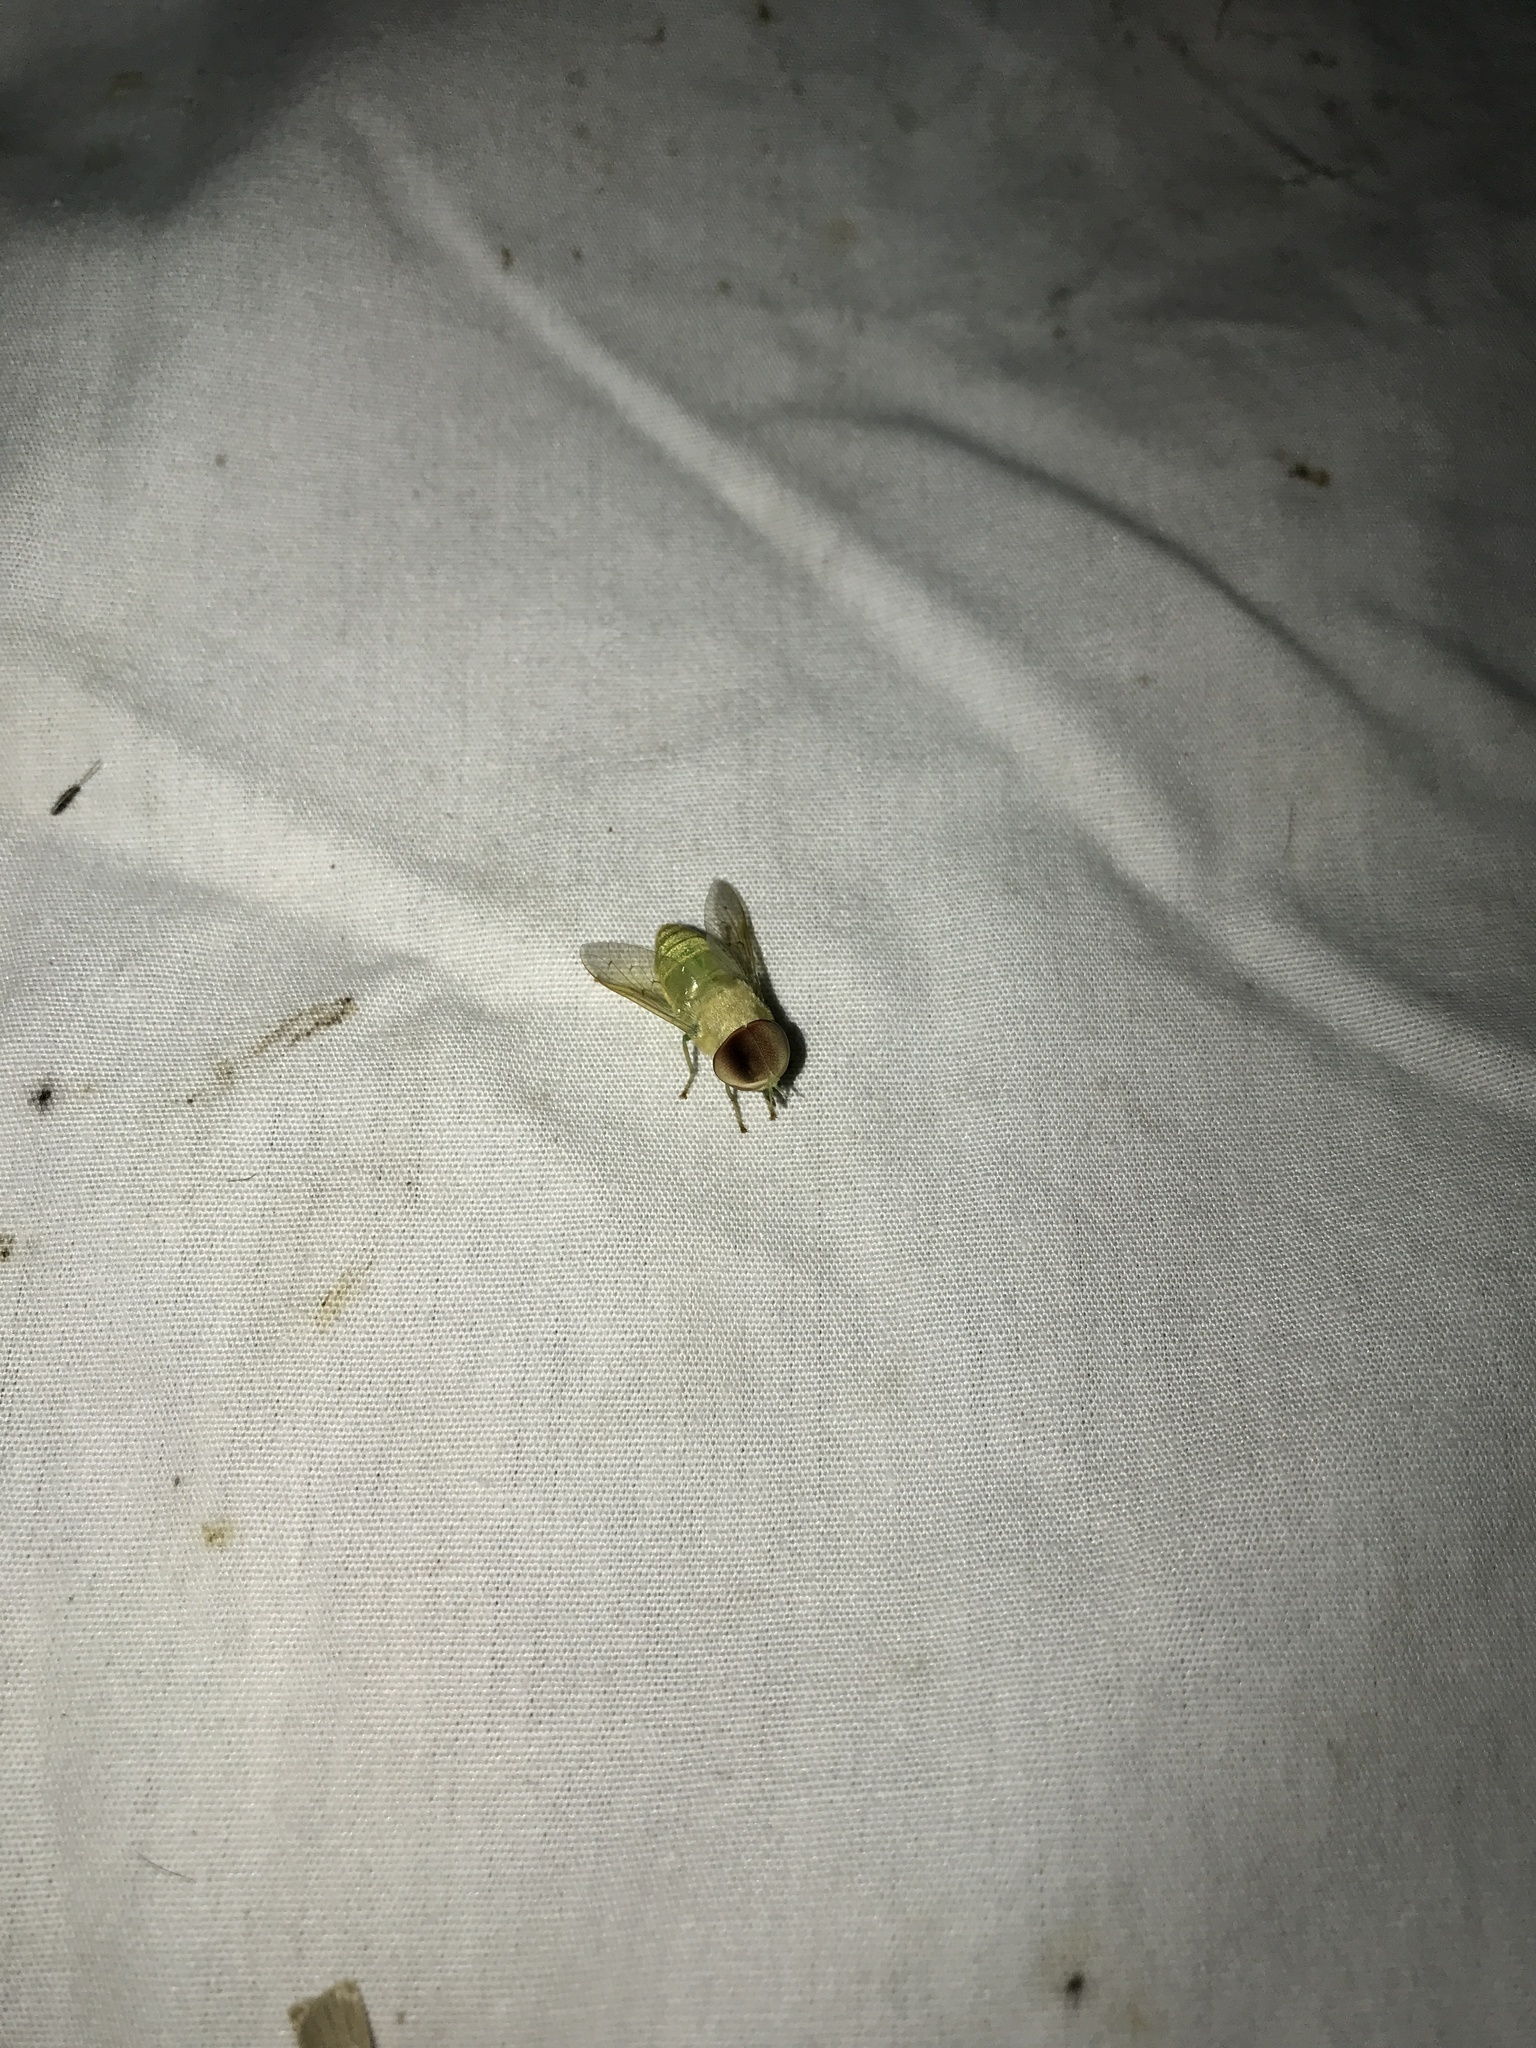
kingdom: Animalia
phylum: Arthropoda
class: Insecta
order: Diptera
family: Tabanidae
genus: Chlorotabanus
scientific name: Chlorotabanus crepuscularis
